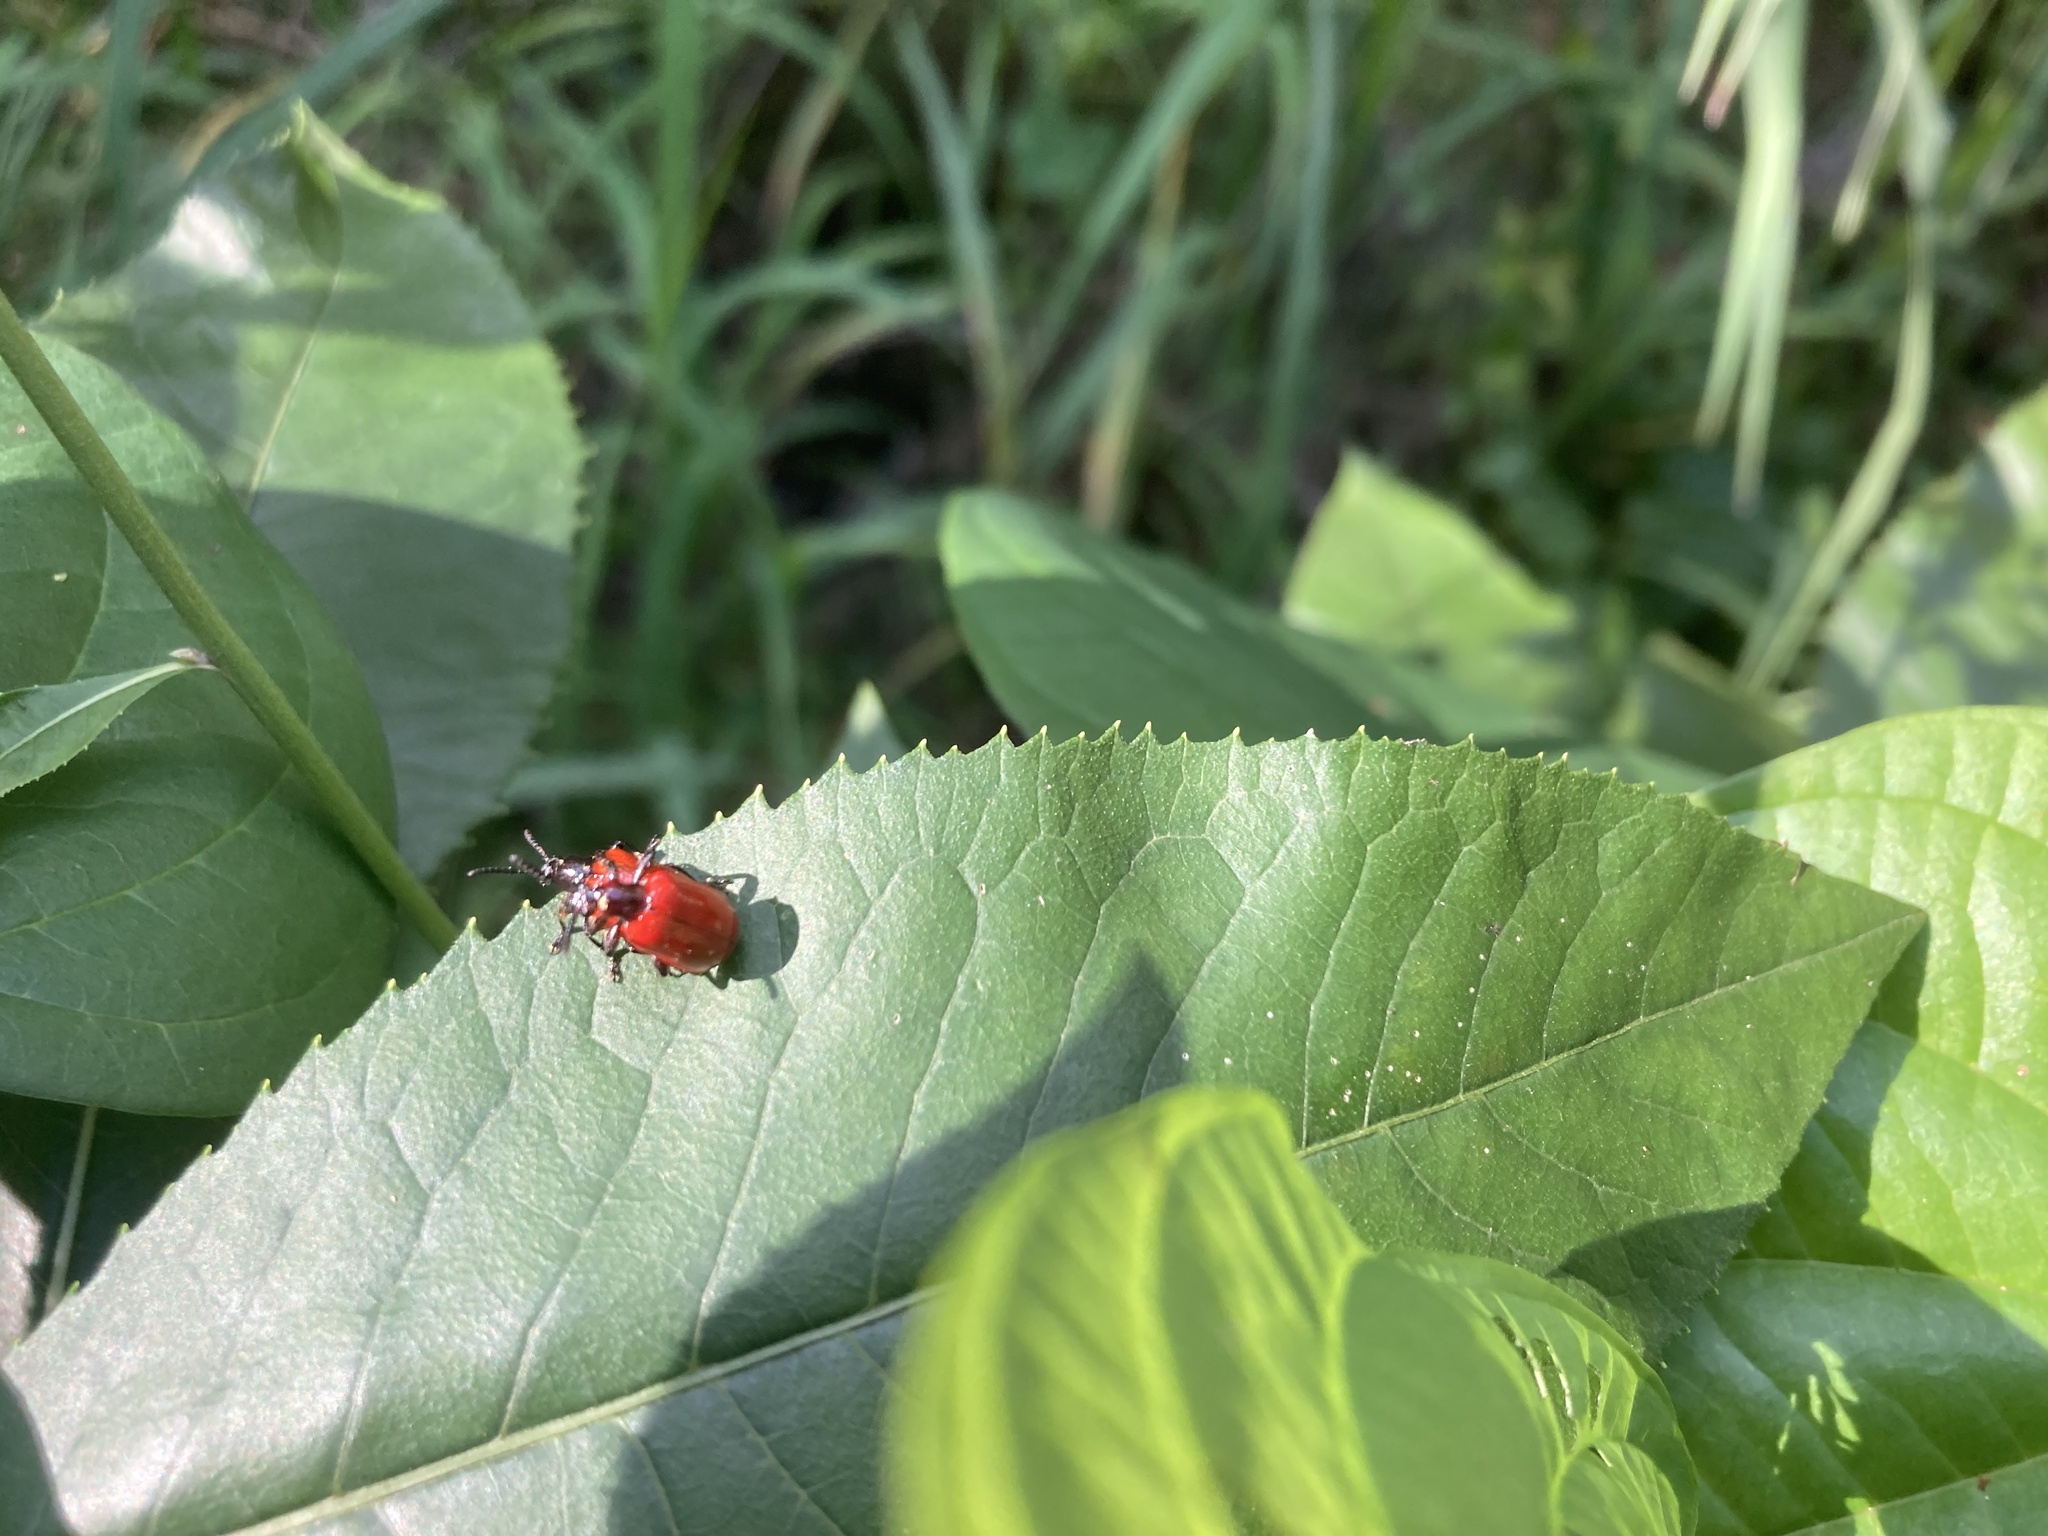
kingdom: Animalia
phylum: Arthropoda
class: Insecta
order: Coleoptera
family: Chrysomelidae
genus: Lilioceris
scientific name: Lilioceris cheni
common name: Leaf beetle
